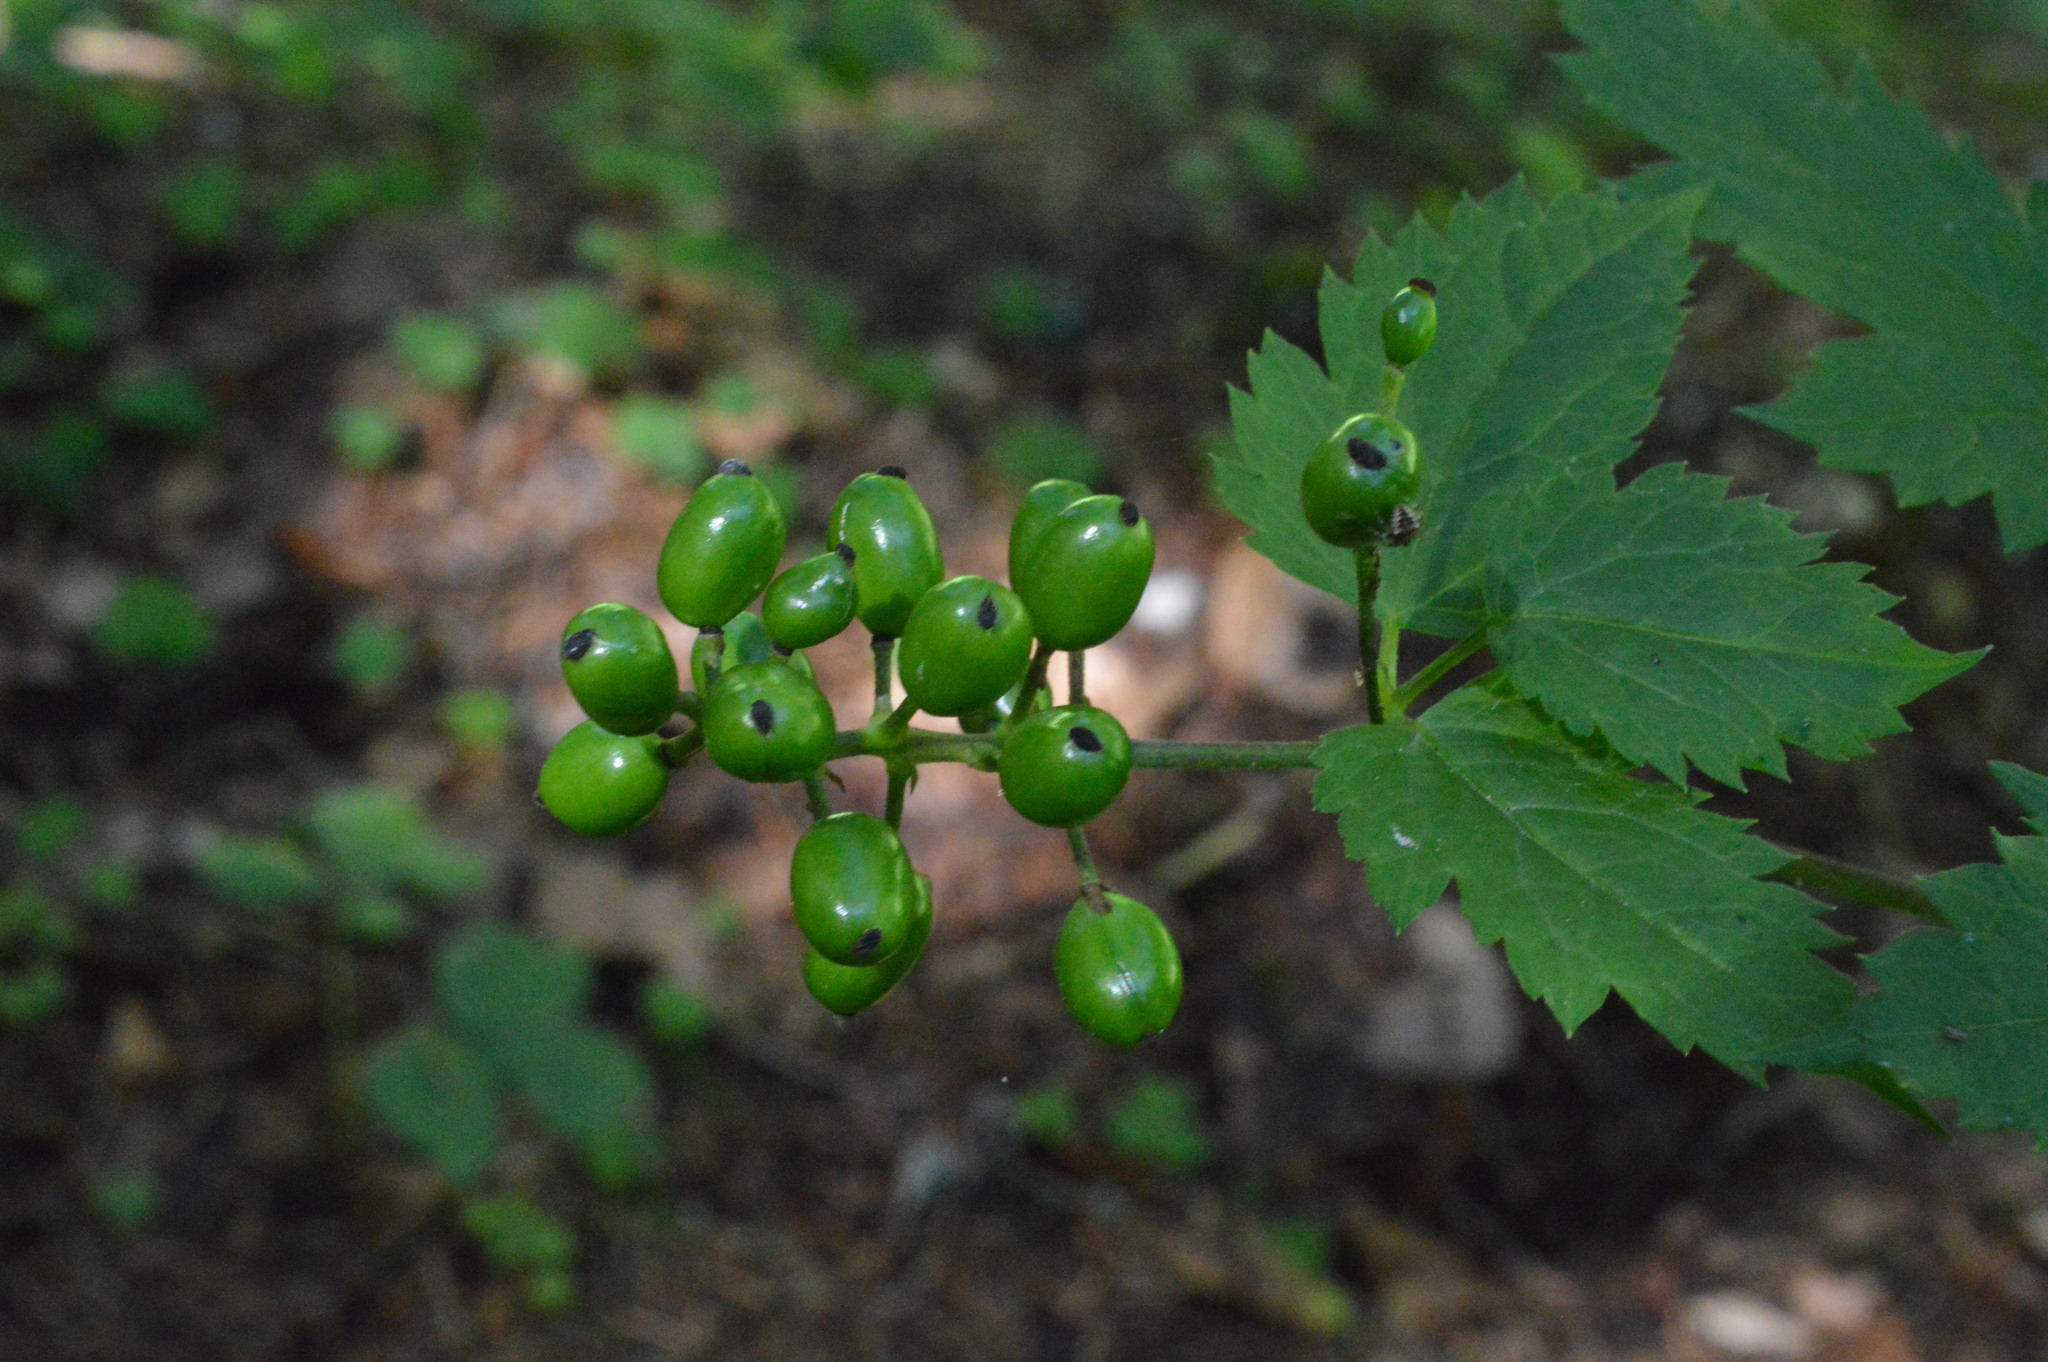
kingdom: Plantae
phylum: Tracheophyta
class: Magnoliopsida
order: Ranunculales
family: Ranunculaceae
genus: Actaea
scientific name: Actaea spicata
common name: Baneberry
